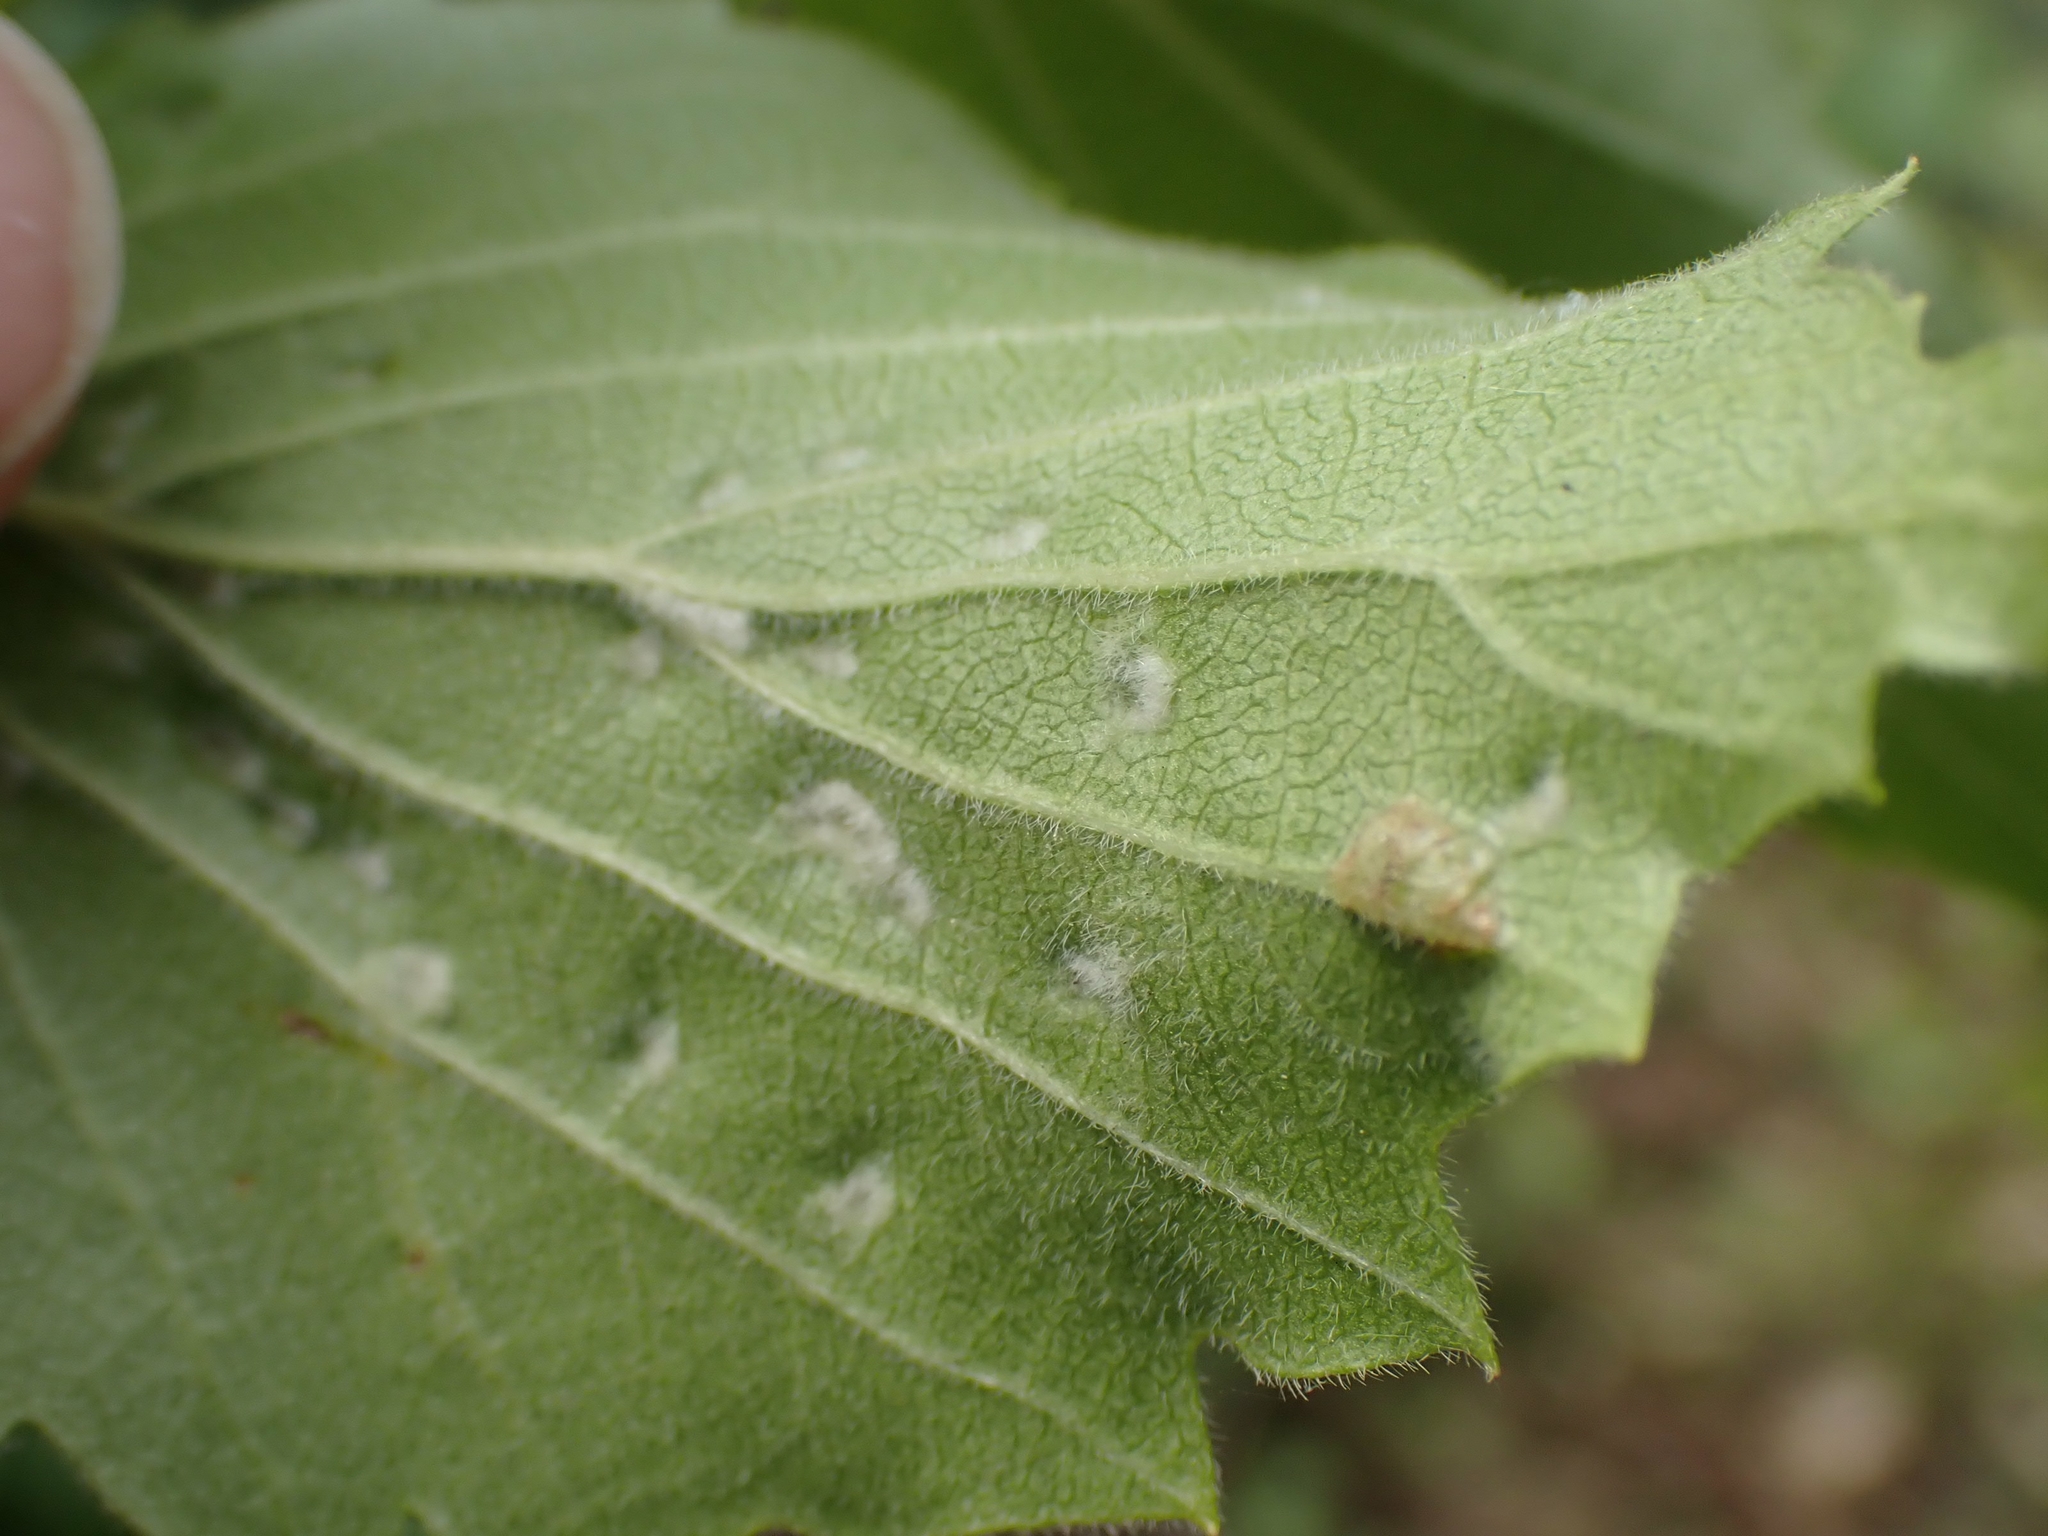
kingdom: Animalia
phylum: Arthropoda
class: Arachnida
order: Trombidiformes
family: Eriophyidae
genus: Eriophyes
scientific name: Eriophyes
